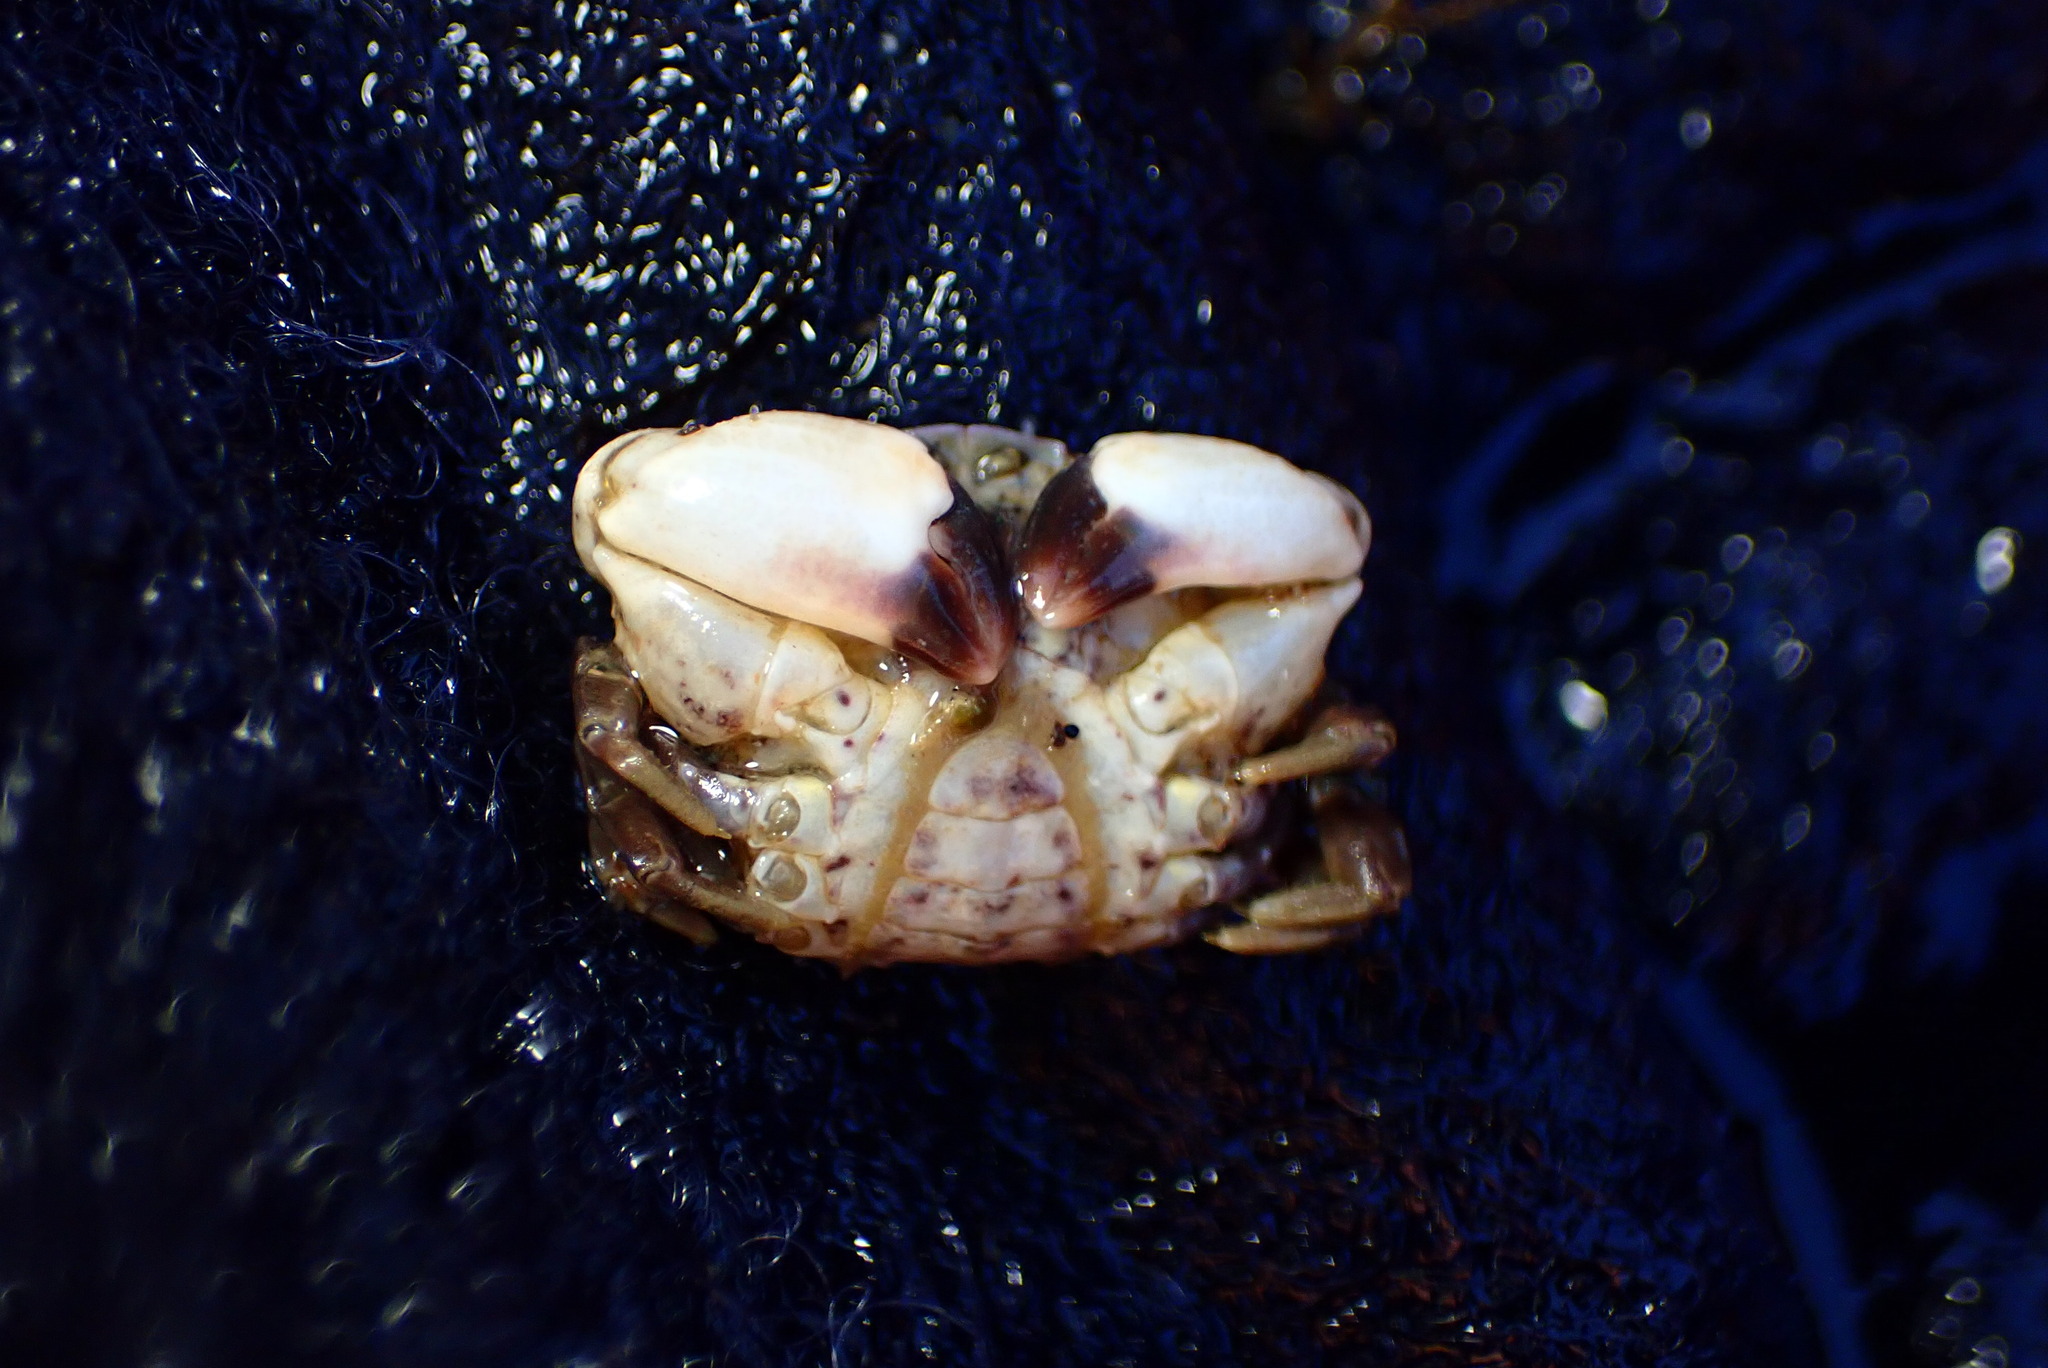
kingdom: Animalia
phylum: Arthropoda
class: Malacostraca
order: Decapoda
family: Panopeidae
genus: Lophopanopeus
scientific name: Lophopanopeus leucomanus
